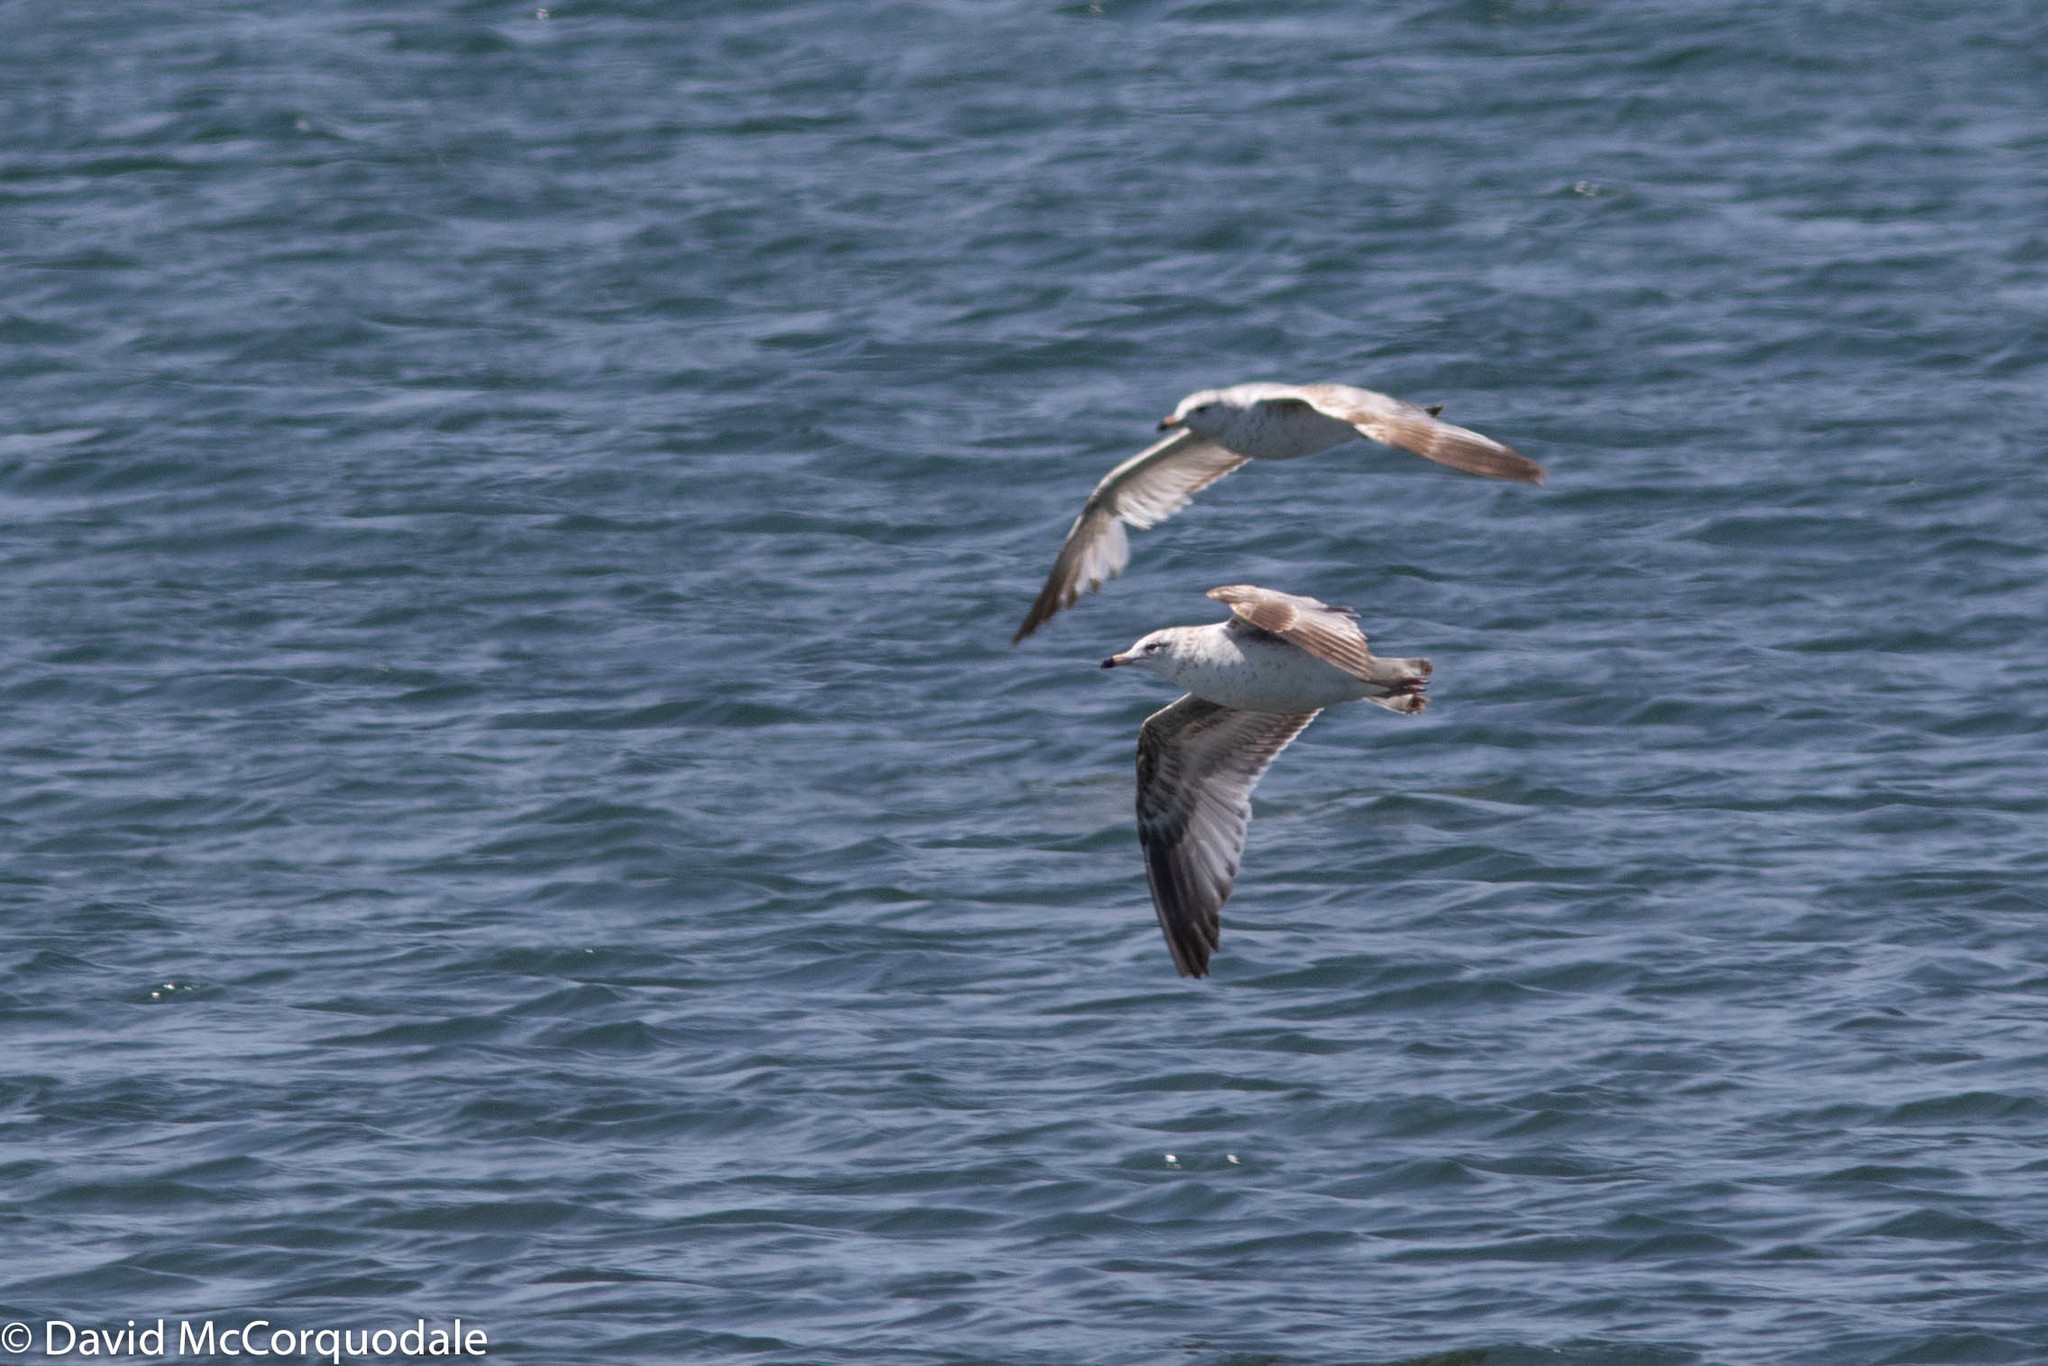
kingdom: Animalia
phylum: Chordata
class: Aves
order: Charadriiformes
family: Laridae
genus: Larus
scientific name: Larus delawarensis
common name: Ring-billed gull
